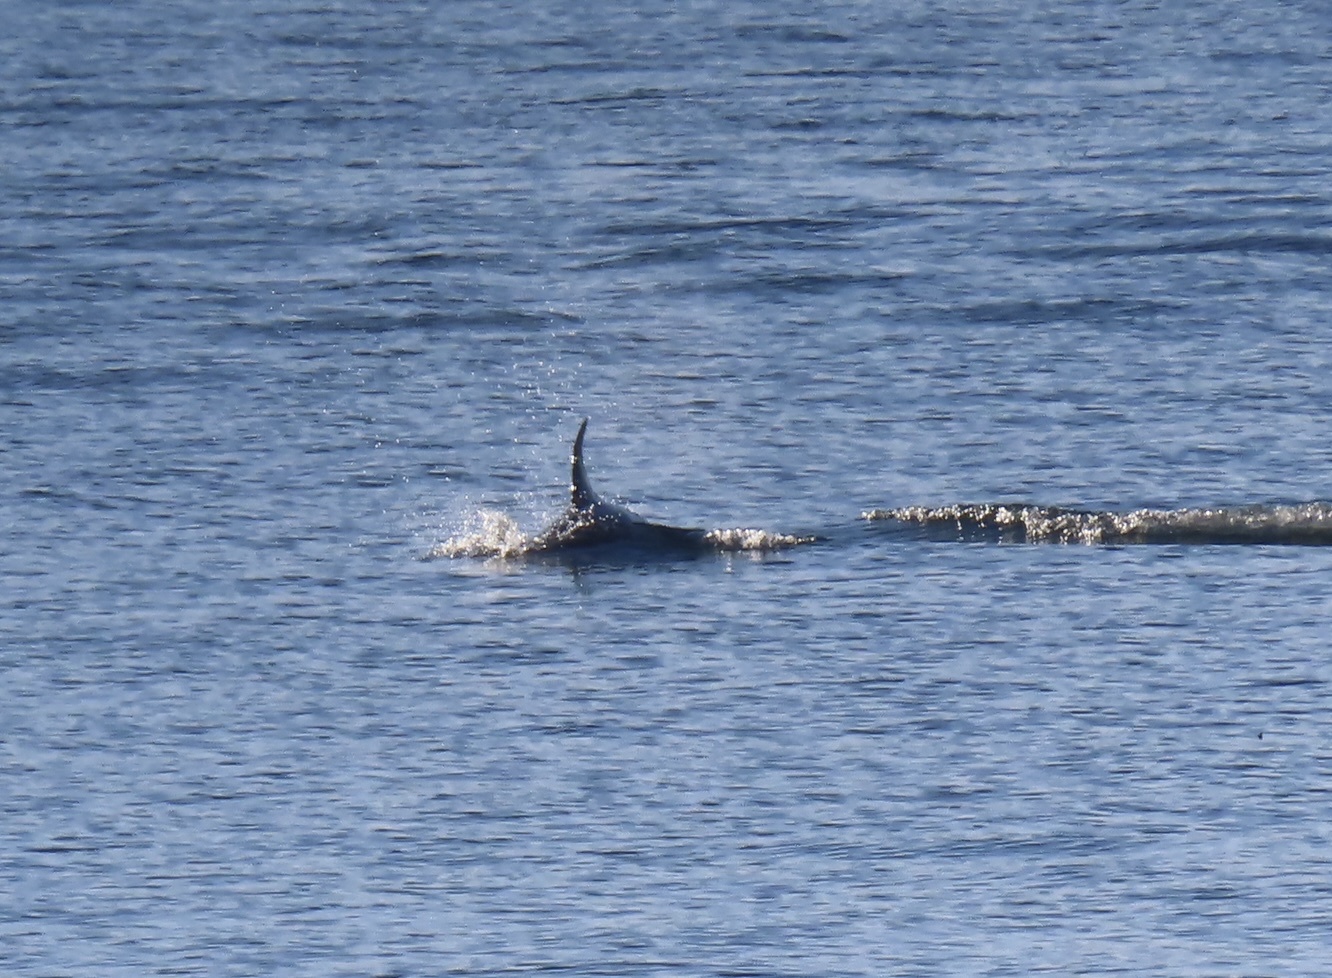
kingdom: Animalia
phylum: Chordata
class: Mammalia
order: Cetacea
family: Delphinidae
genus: Lagenorhynchus
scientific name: Lagenorhynchus australis
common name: Peale's dolphin
